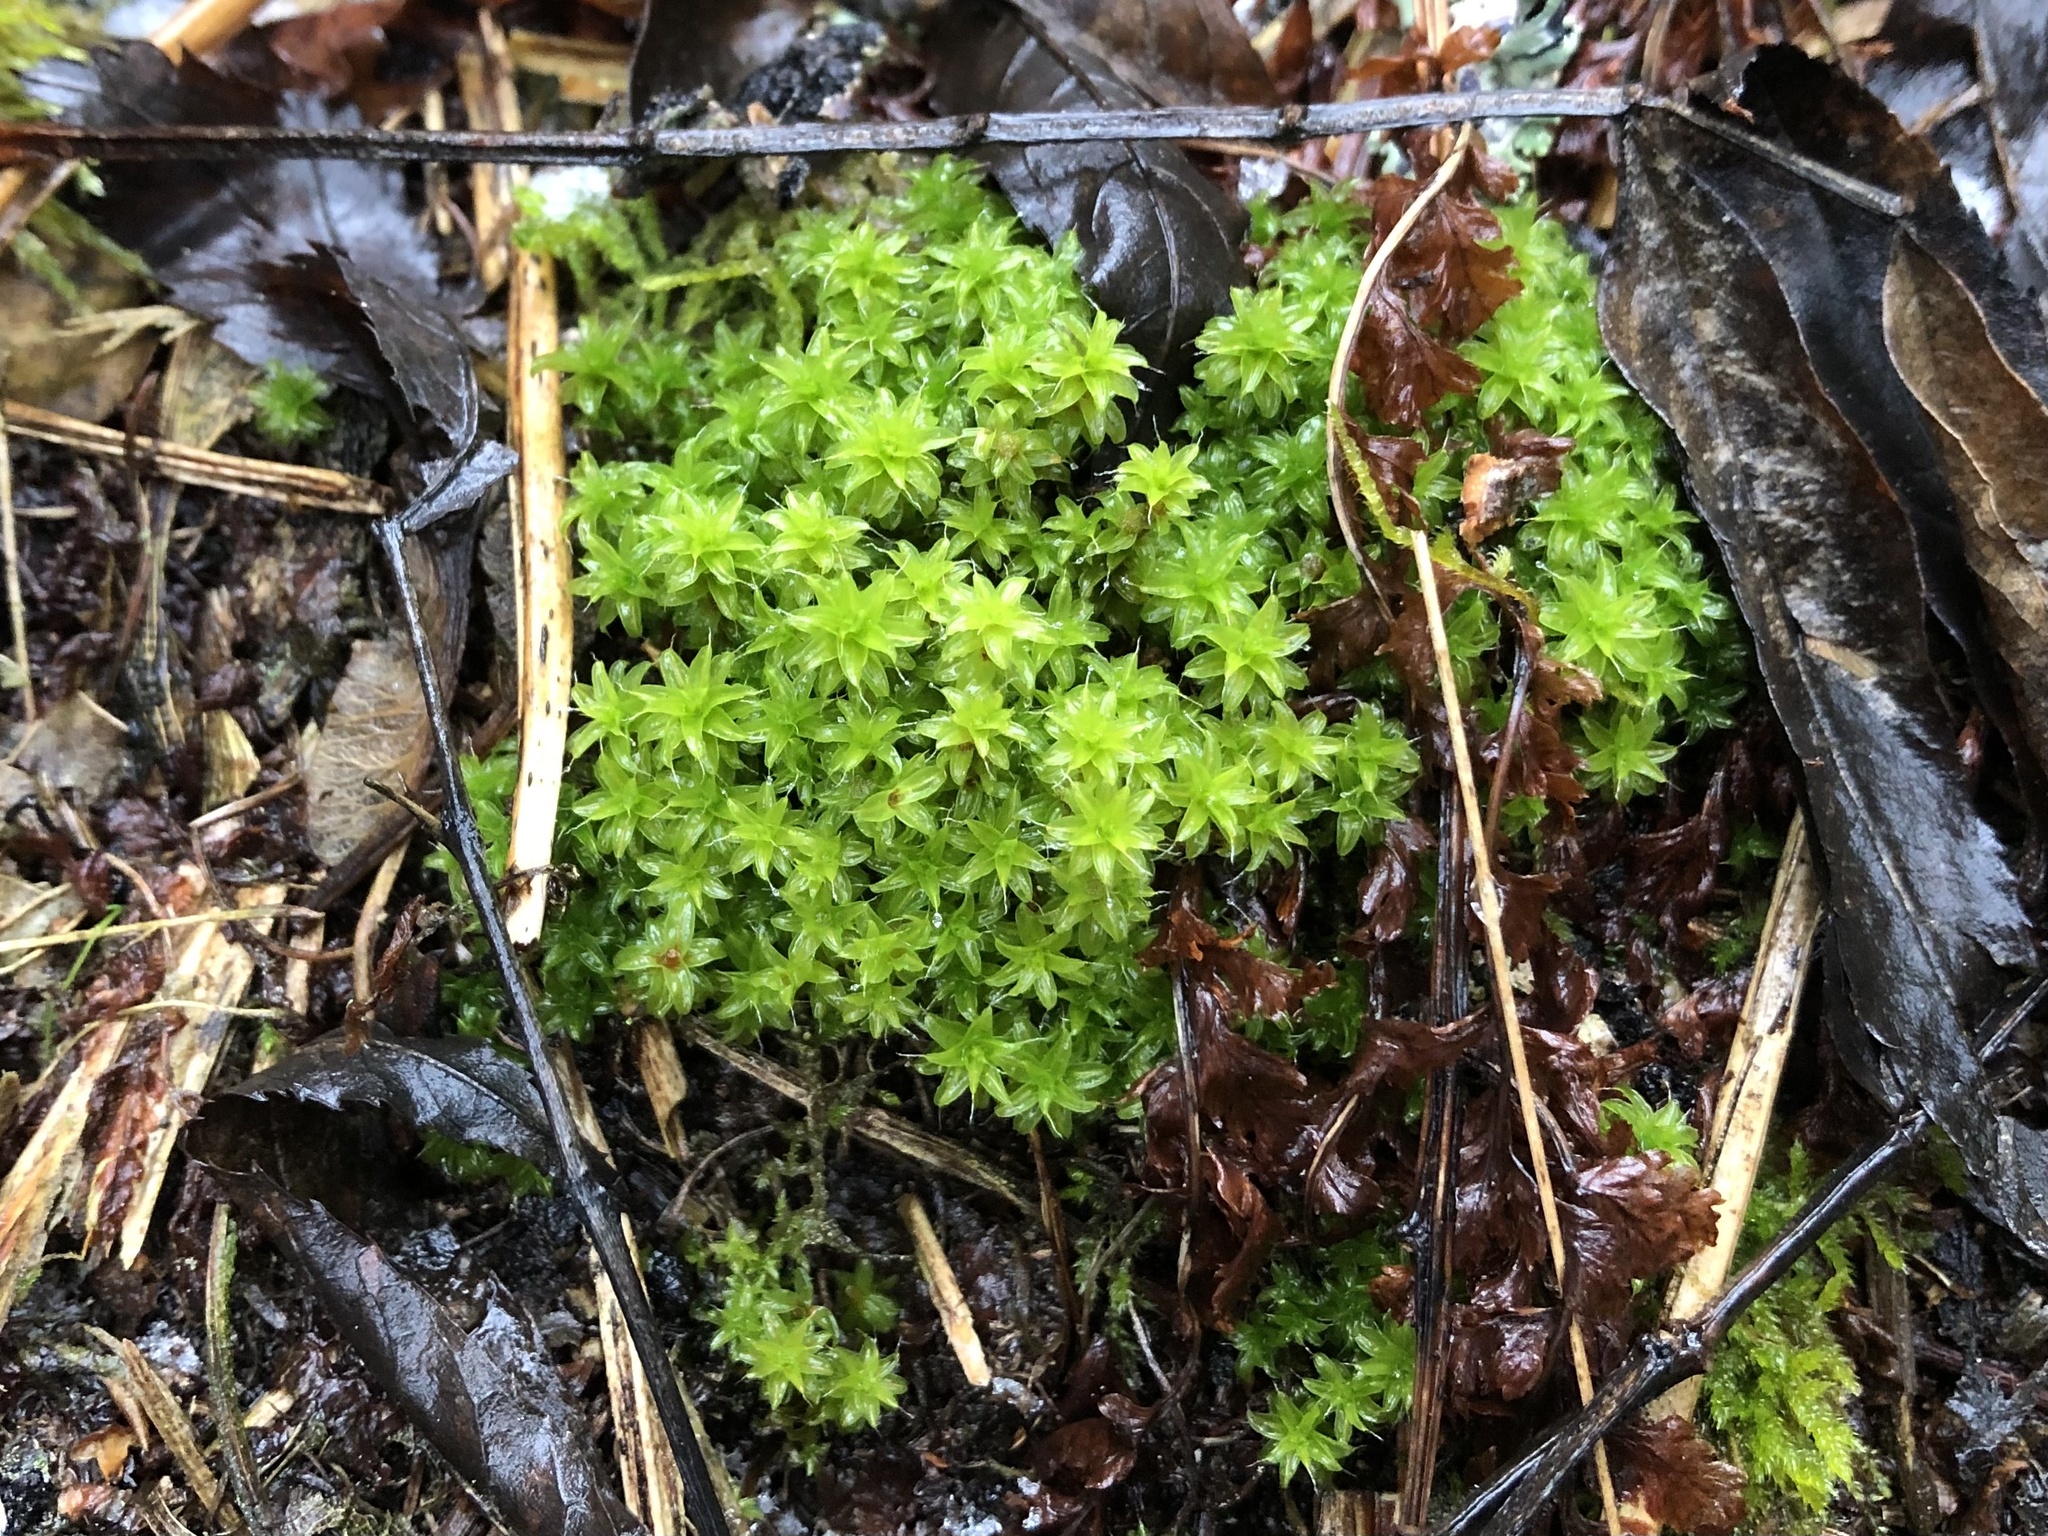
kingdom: Plantae
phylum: Bryophyta
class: Bryopsida
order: Pottiales
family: Pottiaceae
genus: Syntrichia
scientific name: Syntrichia ruralis
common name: Sidewalk screw moss
